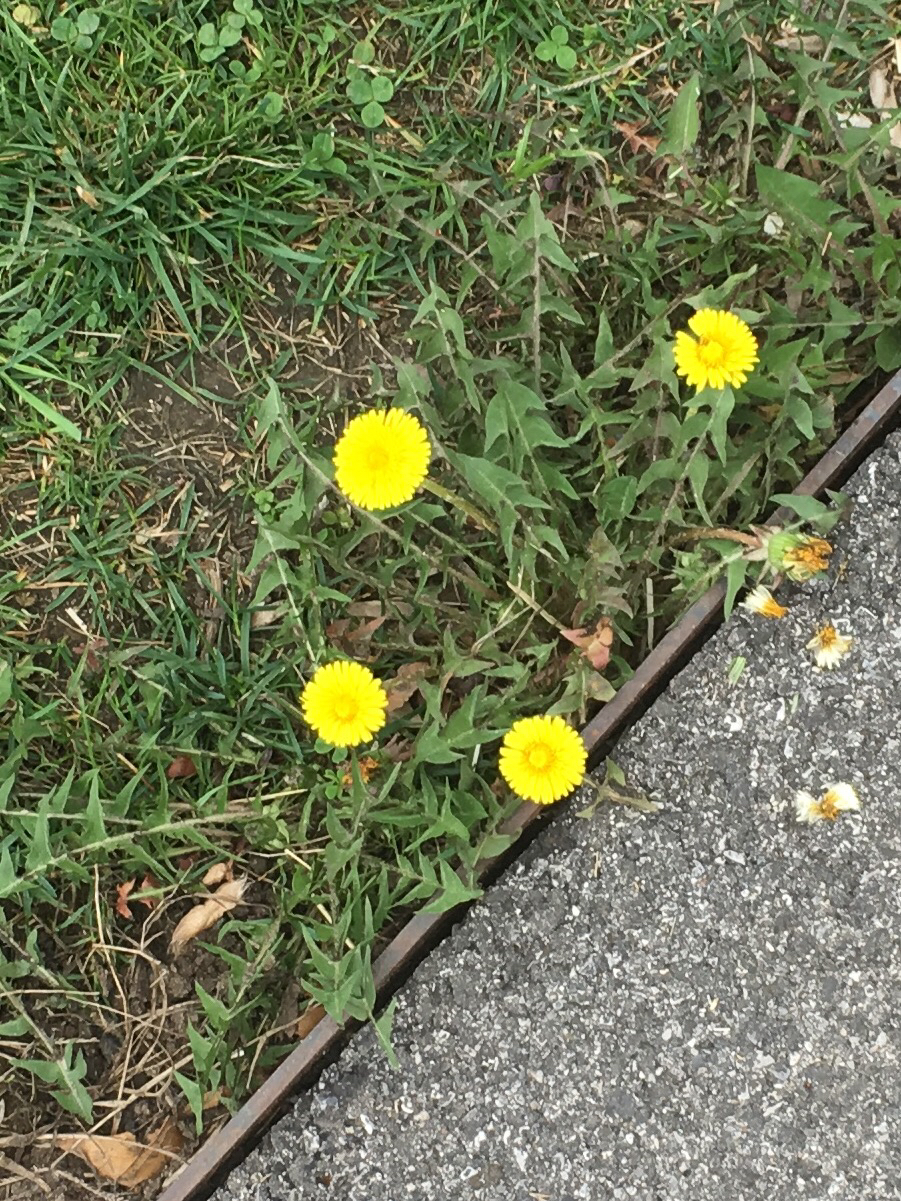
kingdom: Plantae
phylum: Tracheophyta
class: Magnoliopsida
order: Asterales
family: Asteraceae
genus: Taraxacum
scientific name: Taraxacum officinale
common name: Common dandelion
